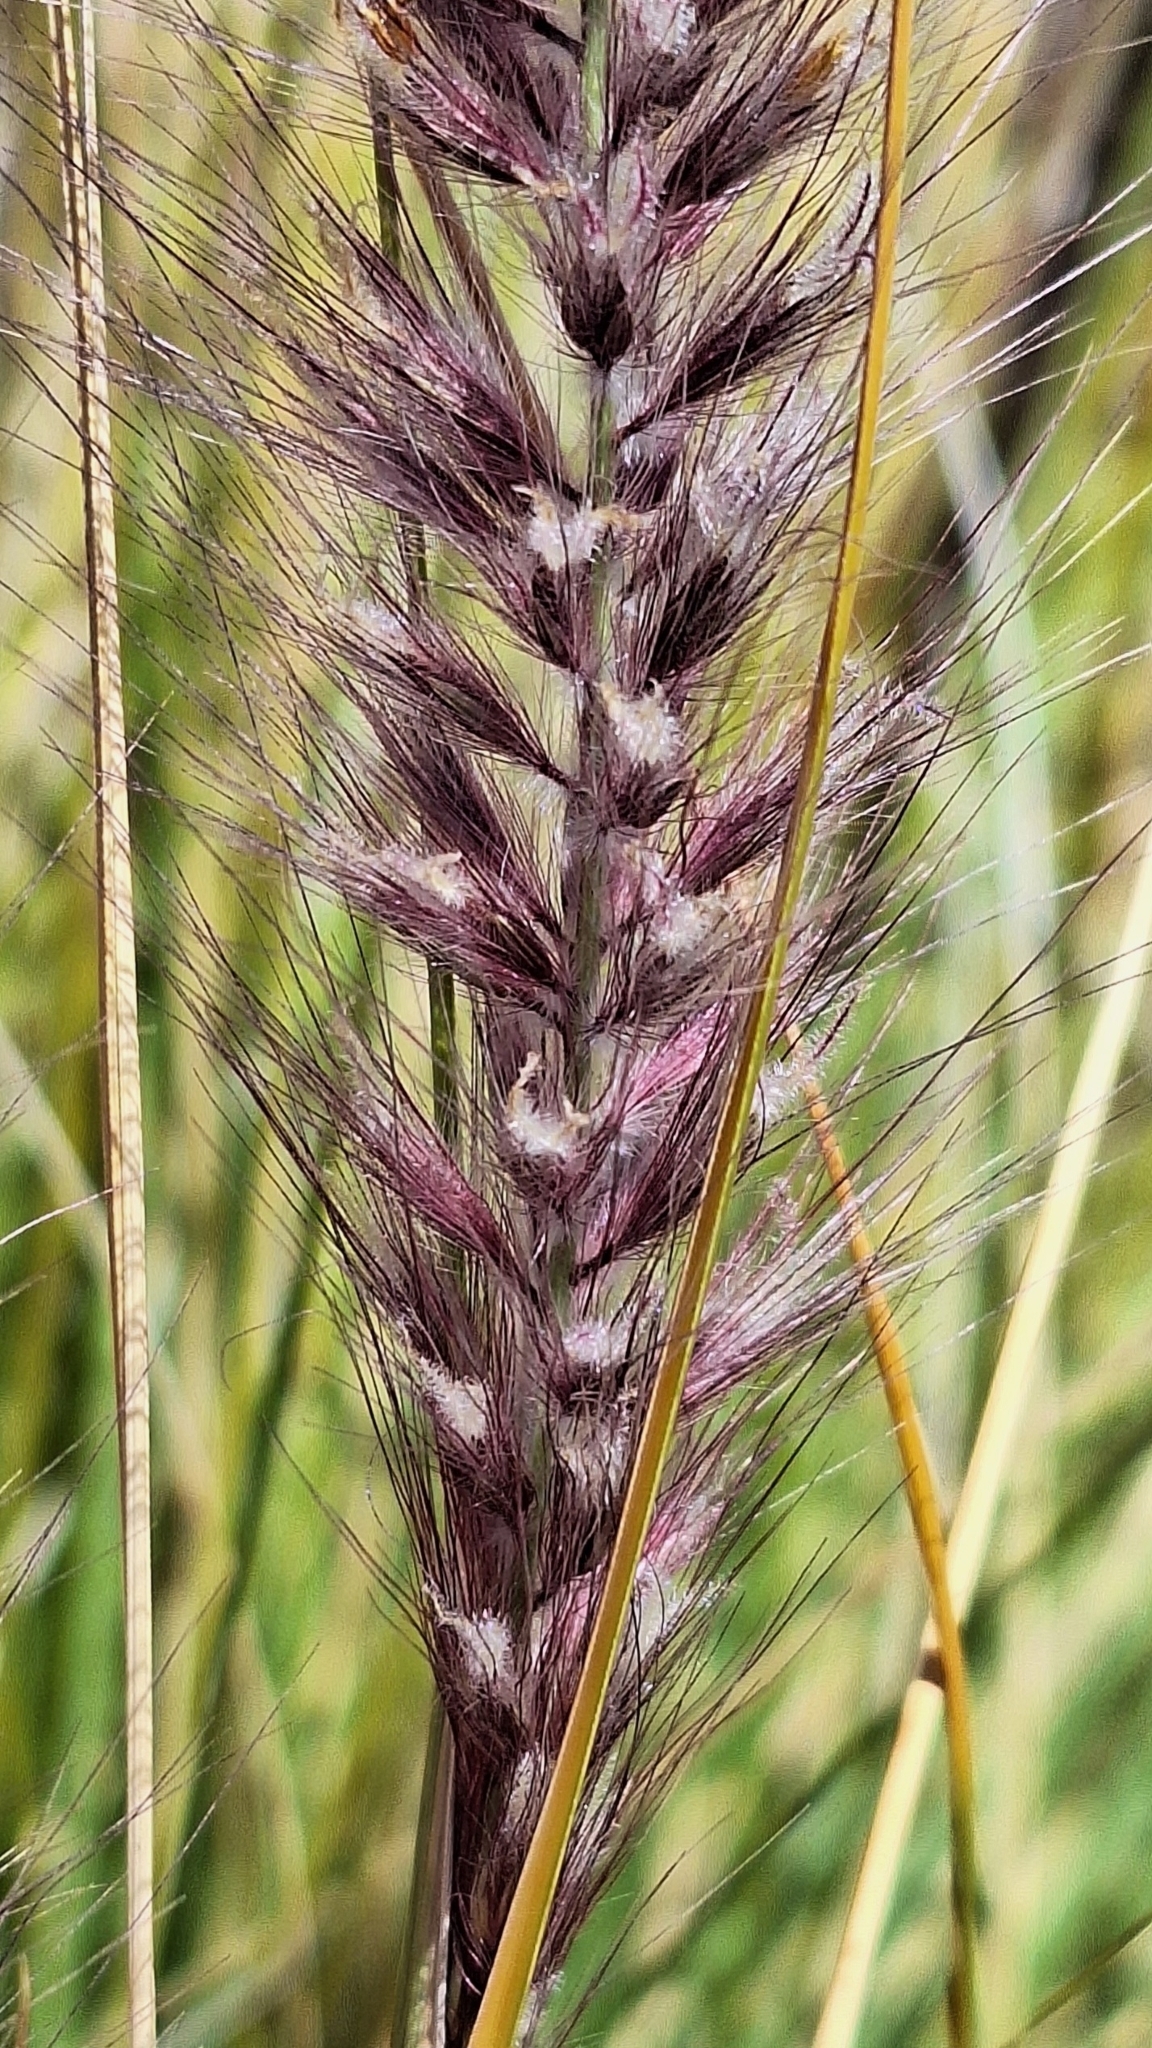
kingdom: Plantae
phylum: Tracheophyta
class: Liliopsida
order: Poales
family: Poaceae
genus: Cenchrus
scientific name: Cenchrus setaceus
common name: Crimson fountaingrass
